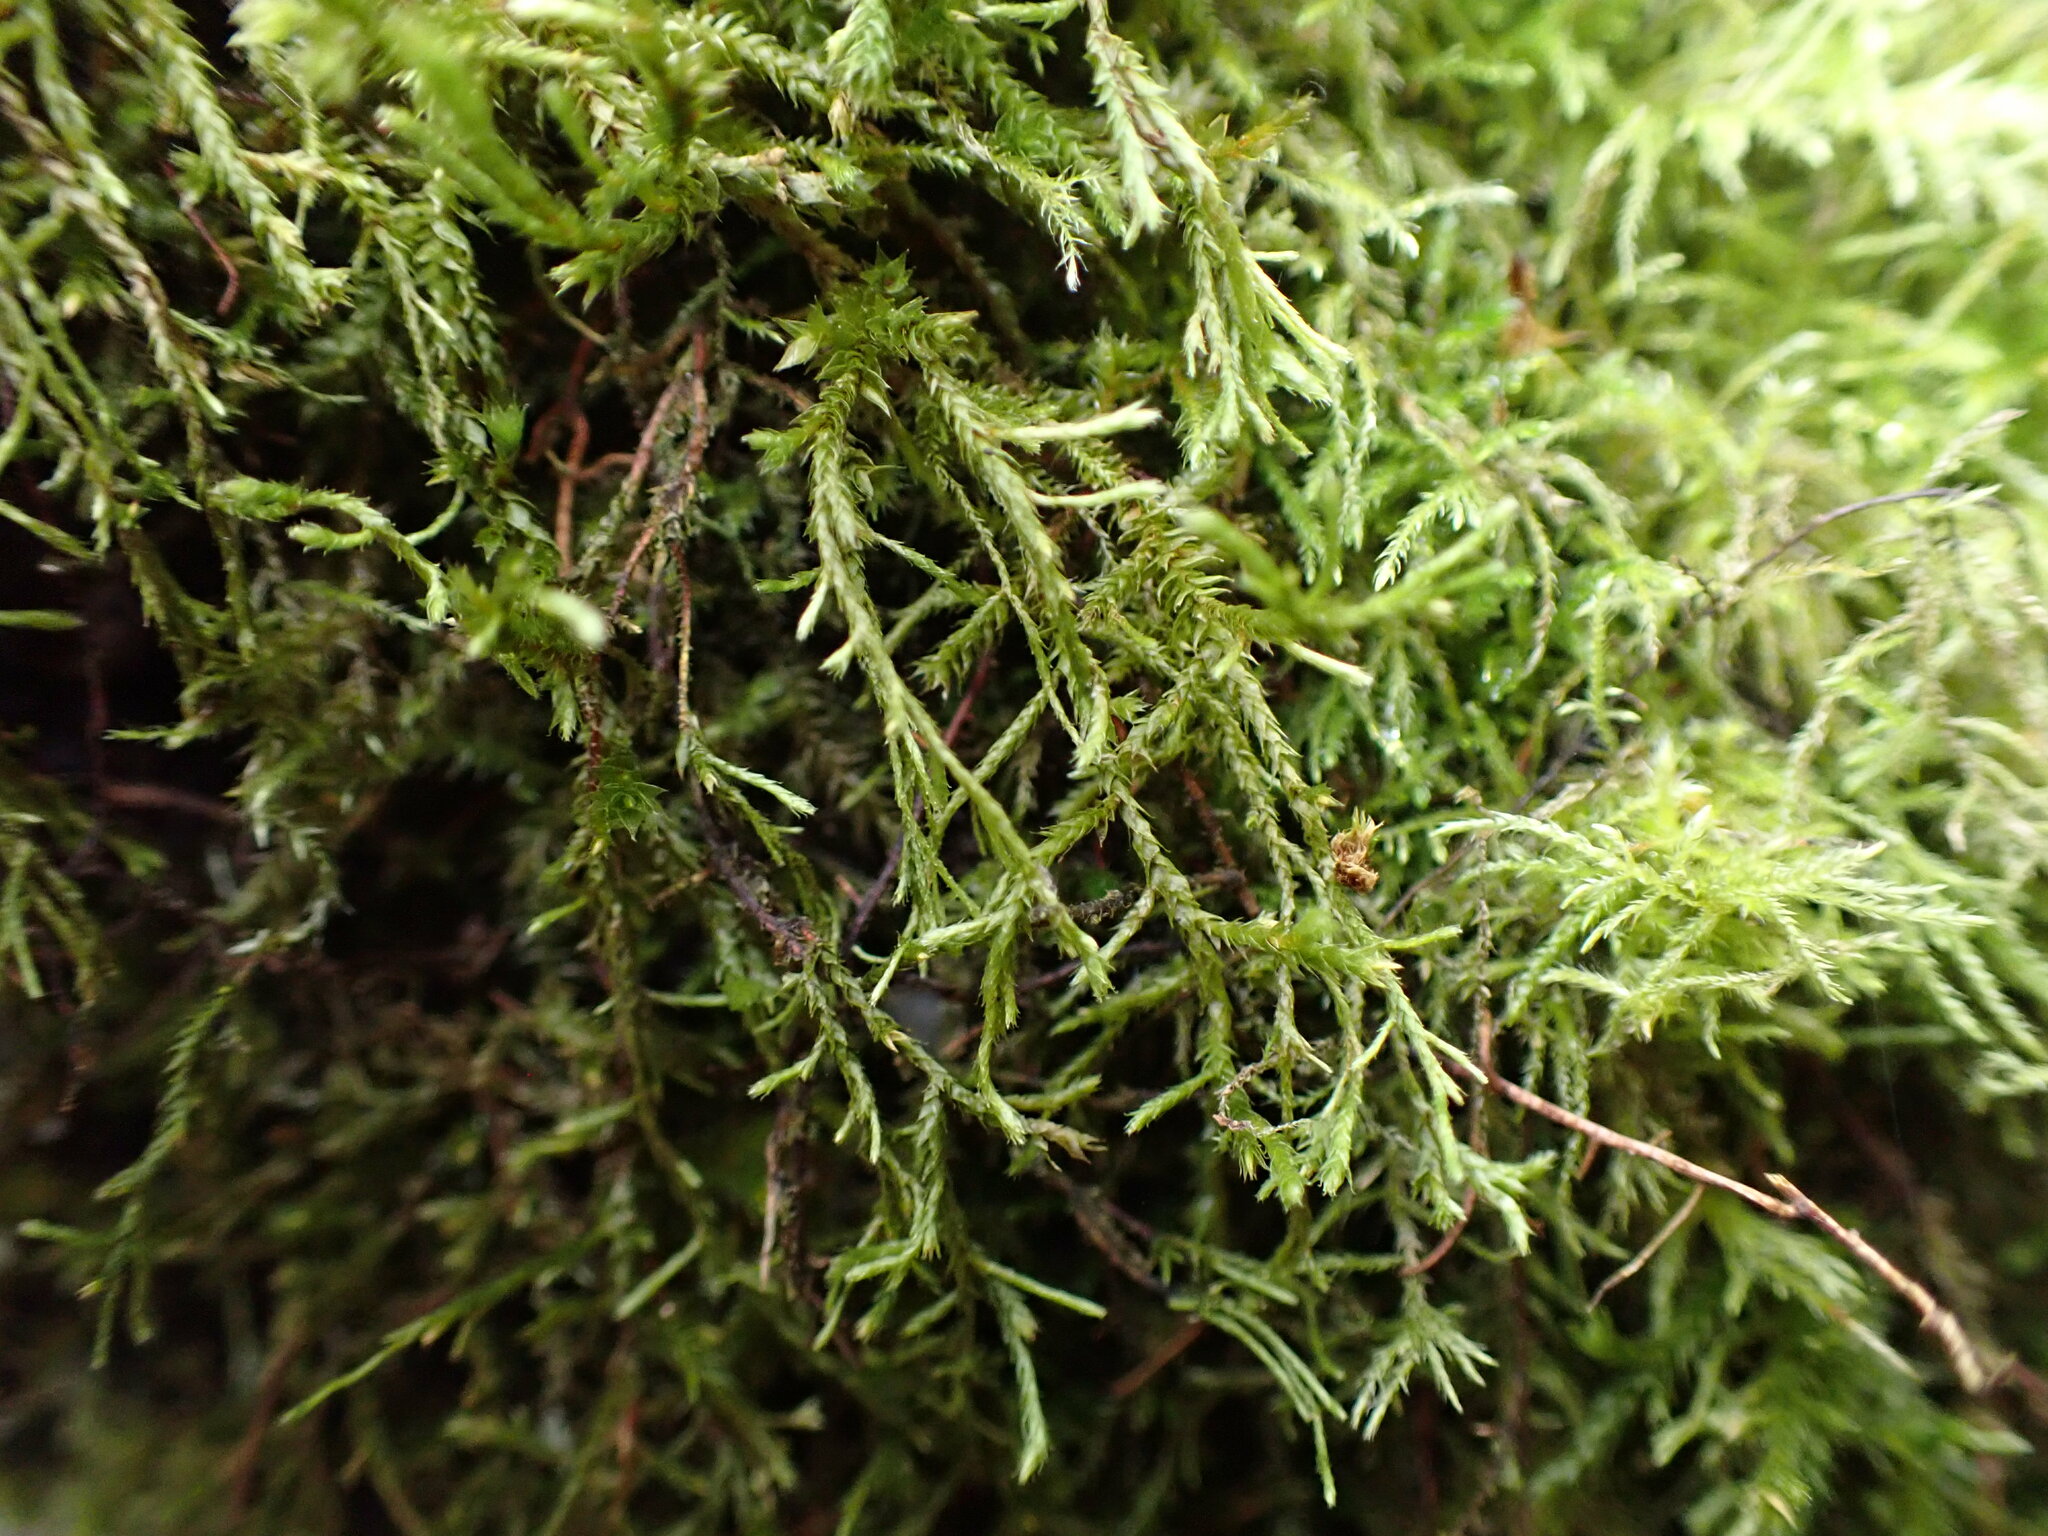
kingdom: Plantae
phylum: Bryophyta
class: Bryopsida
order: Hypnales
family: Antitrichiaceae
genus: Antitrichia
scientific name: Antitrichia californica
